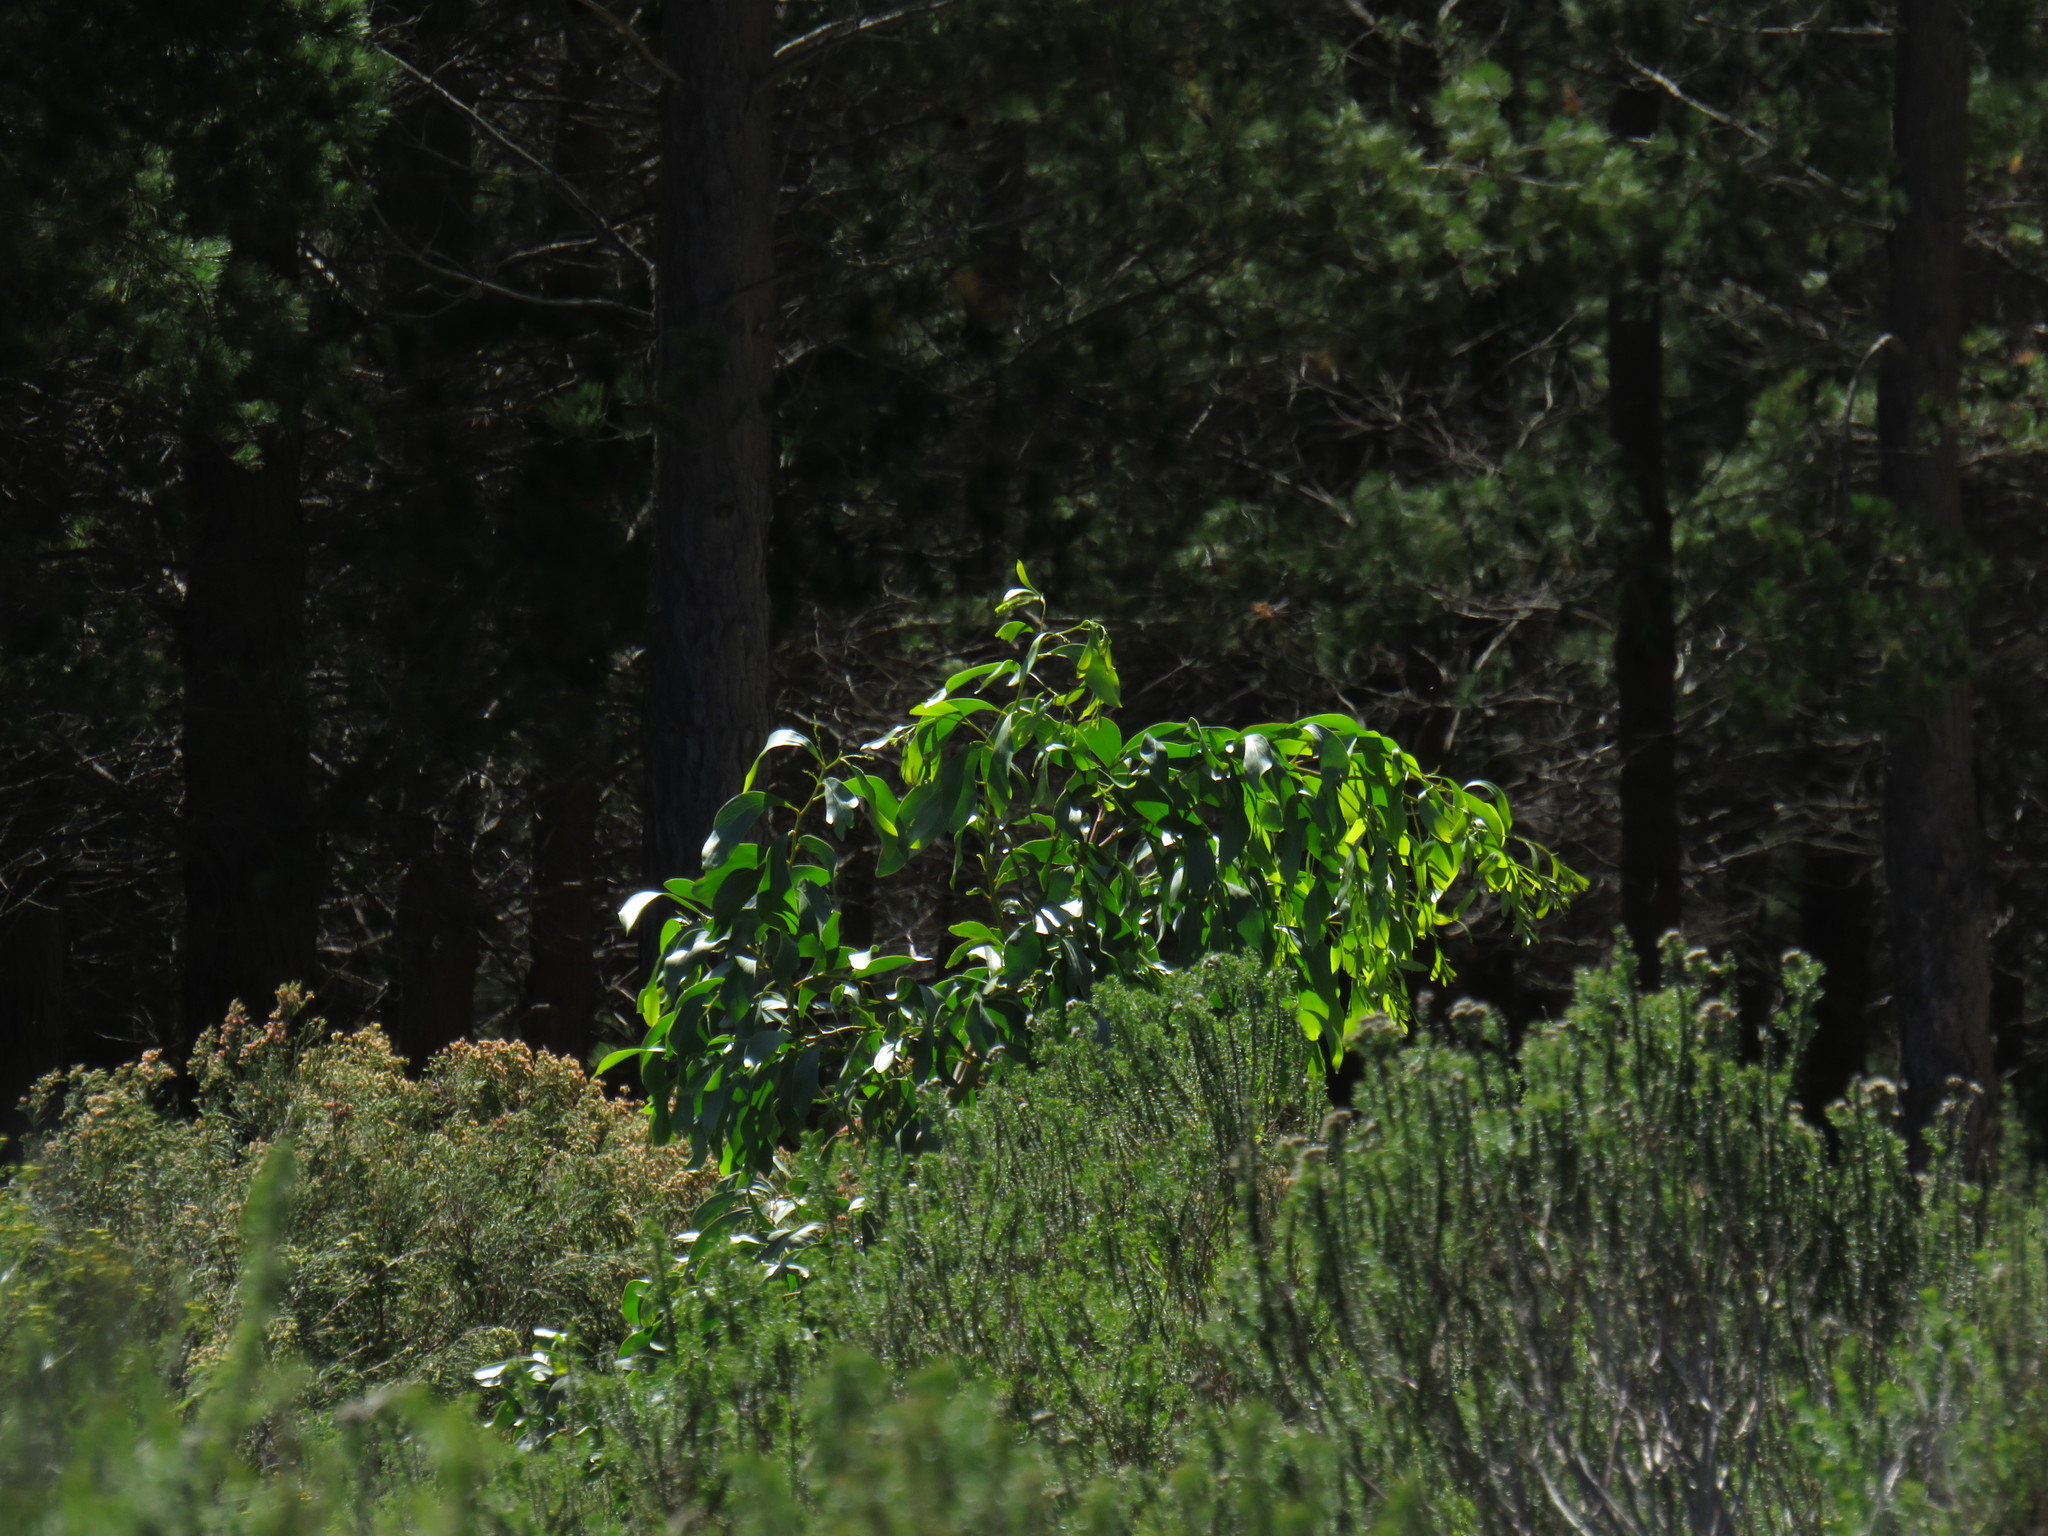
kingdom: Plantae
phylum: Tracheophyta
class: Magnoliopsida
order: Fabales
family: Fabaceae
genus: Acacia
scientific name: Acacia pycnantha
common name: Golden wattle
